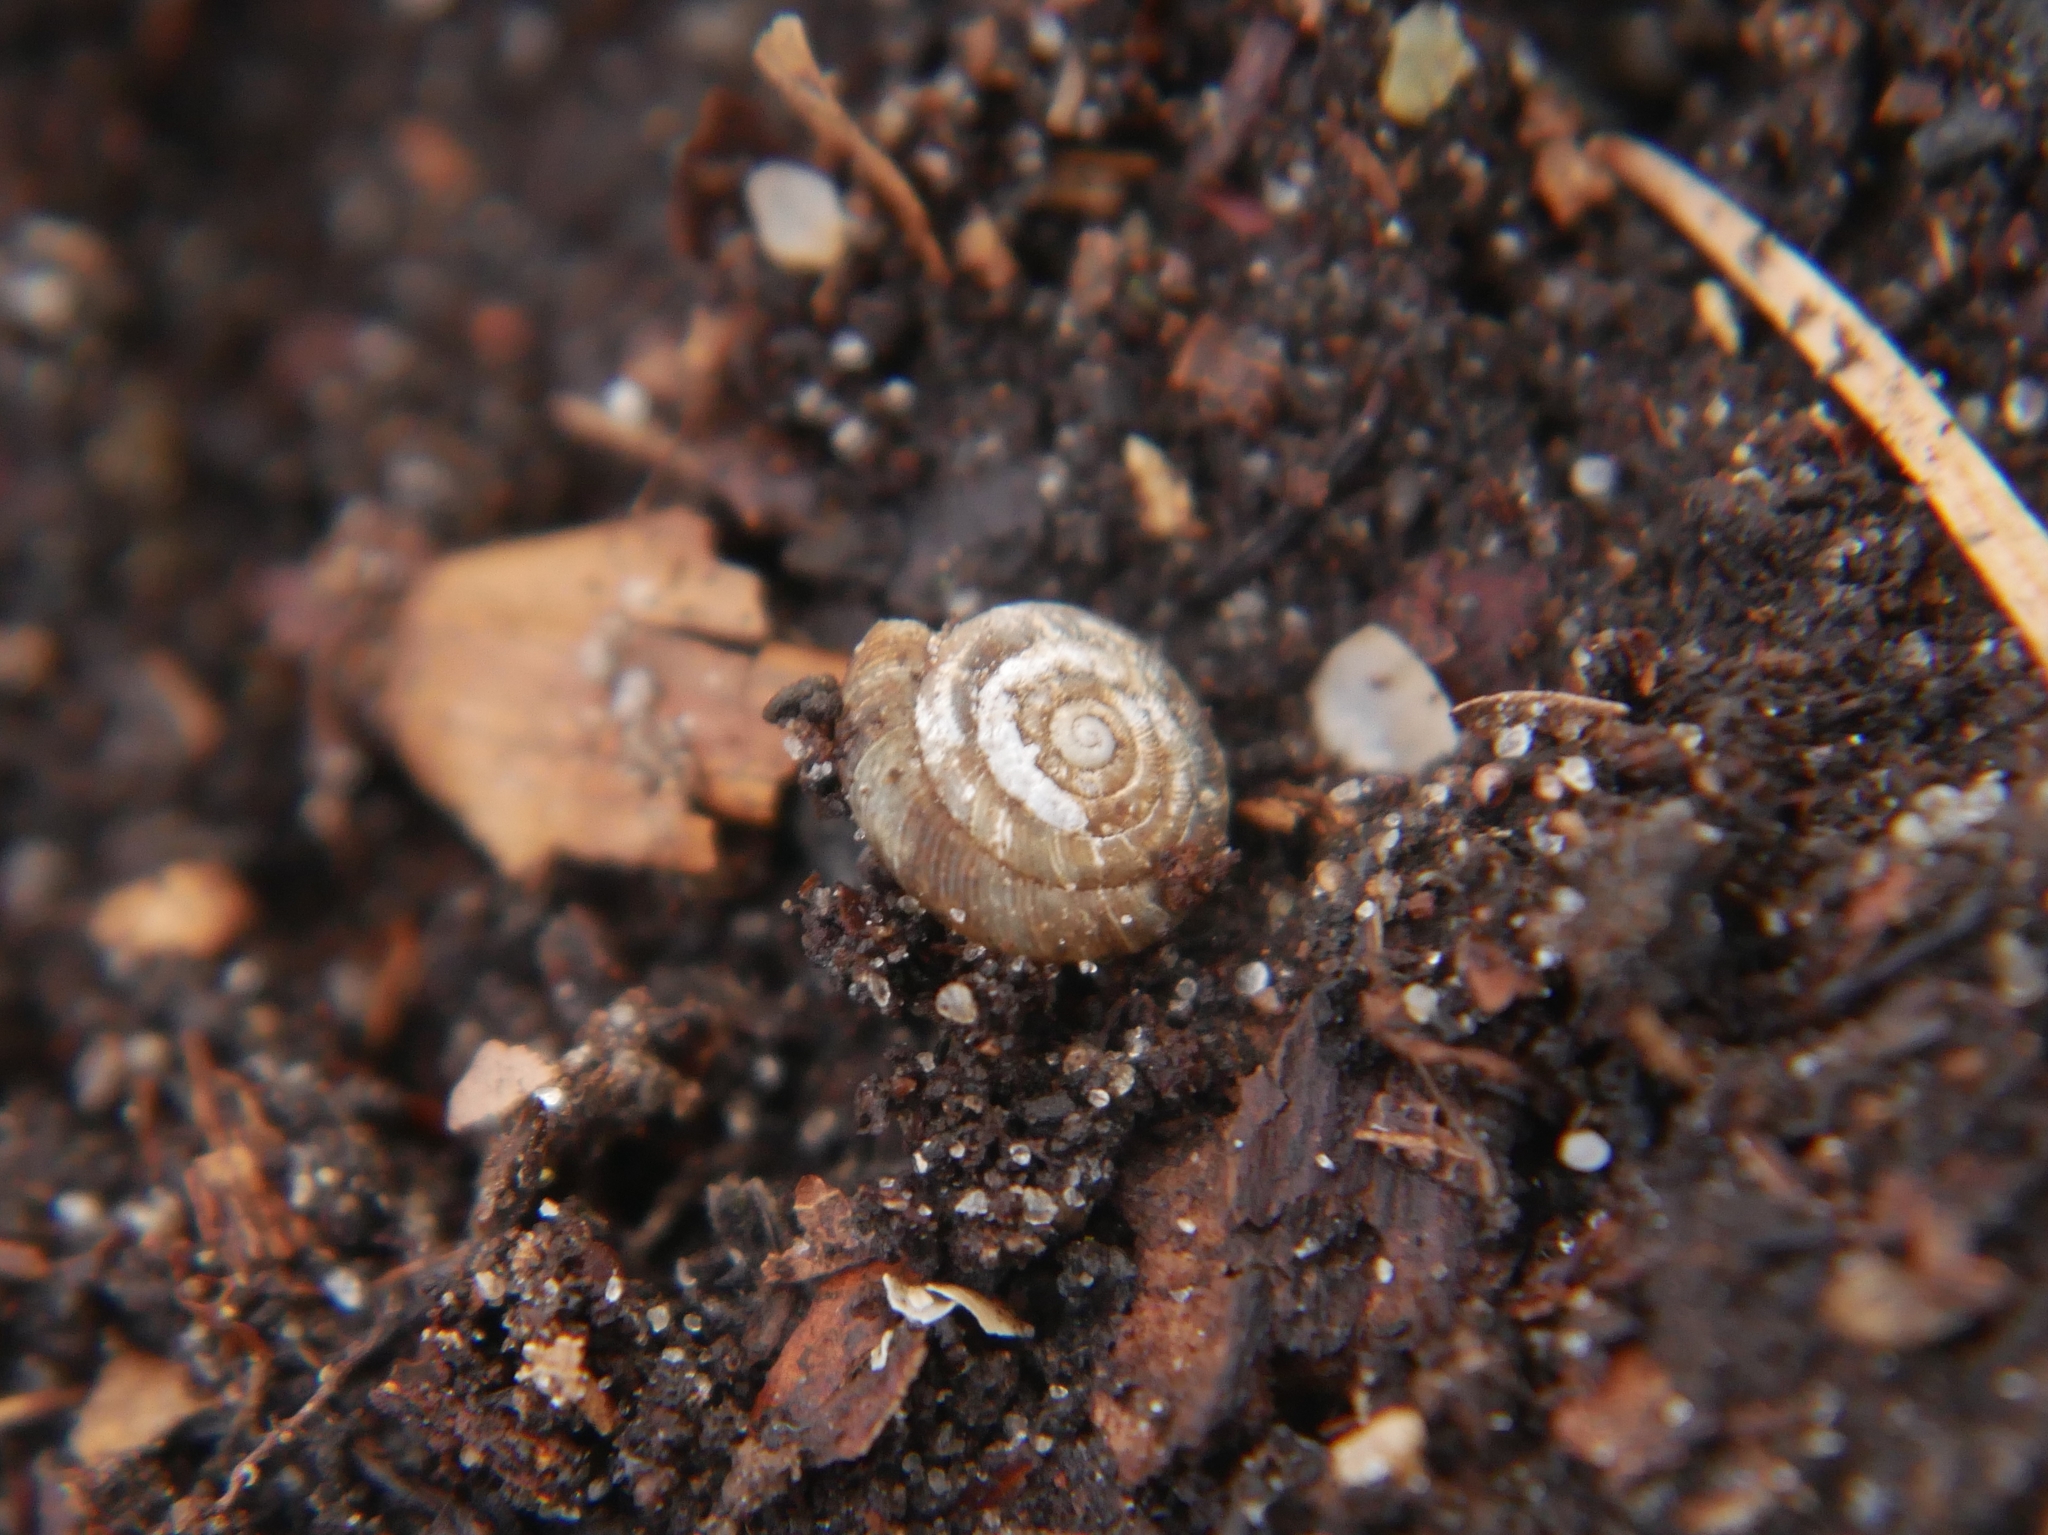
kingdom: Animalia
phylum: Mollusca
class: Gastropoda
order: Stylommatophora
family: Discidae
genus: Discus
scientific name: Discus rotundatus
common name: Rounded snail
